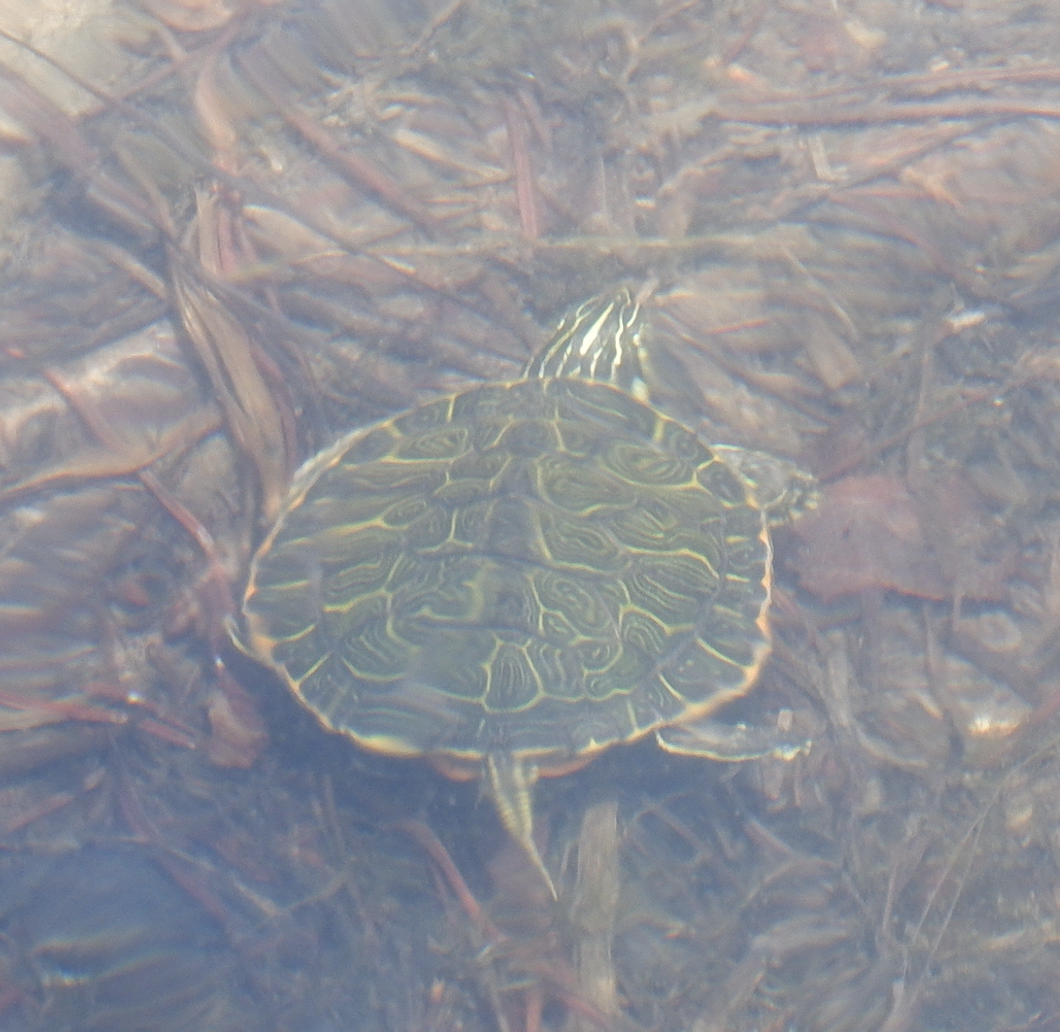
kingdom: Animalia
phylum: Chordata
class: Testudines
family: Emydidae
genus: Pseudemys
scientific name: Pseudemys rubriventris
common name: American red-bellied turtle
